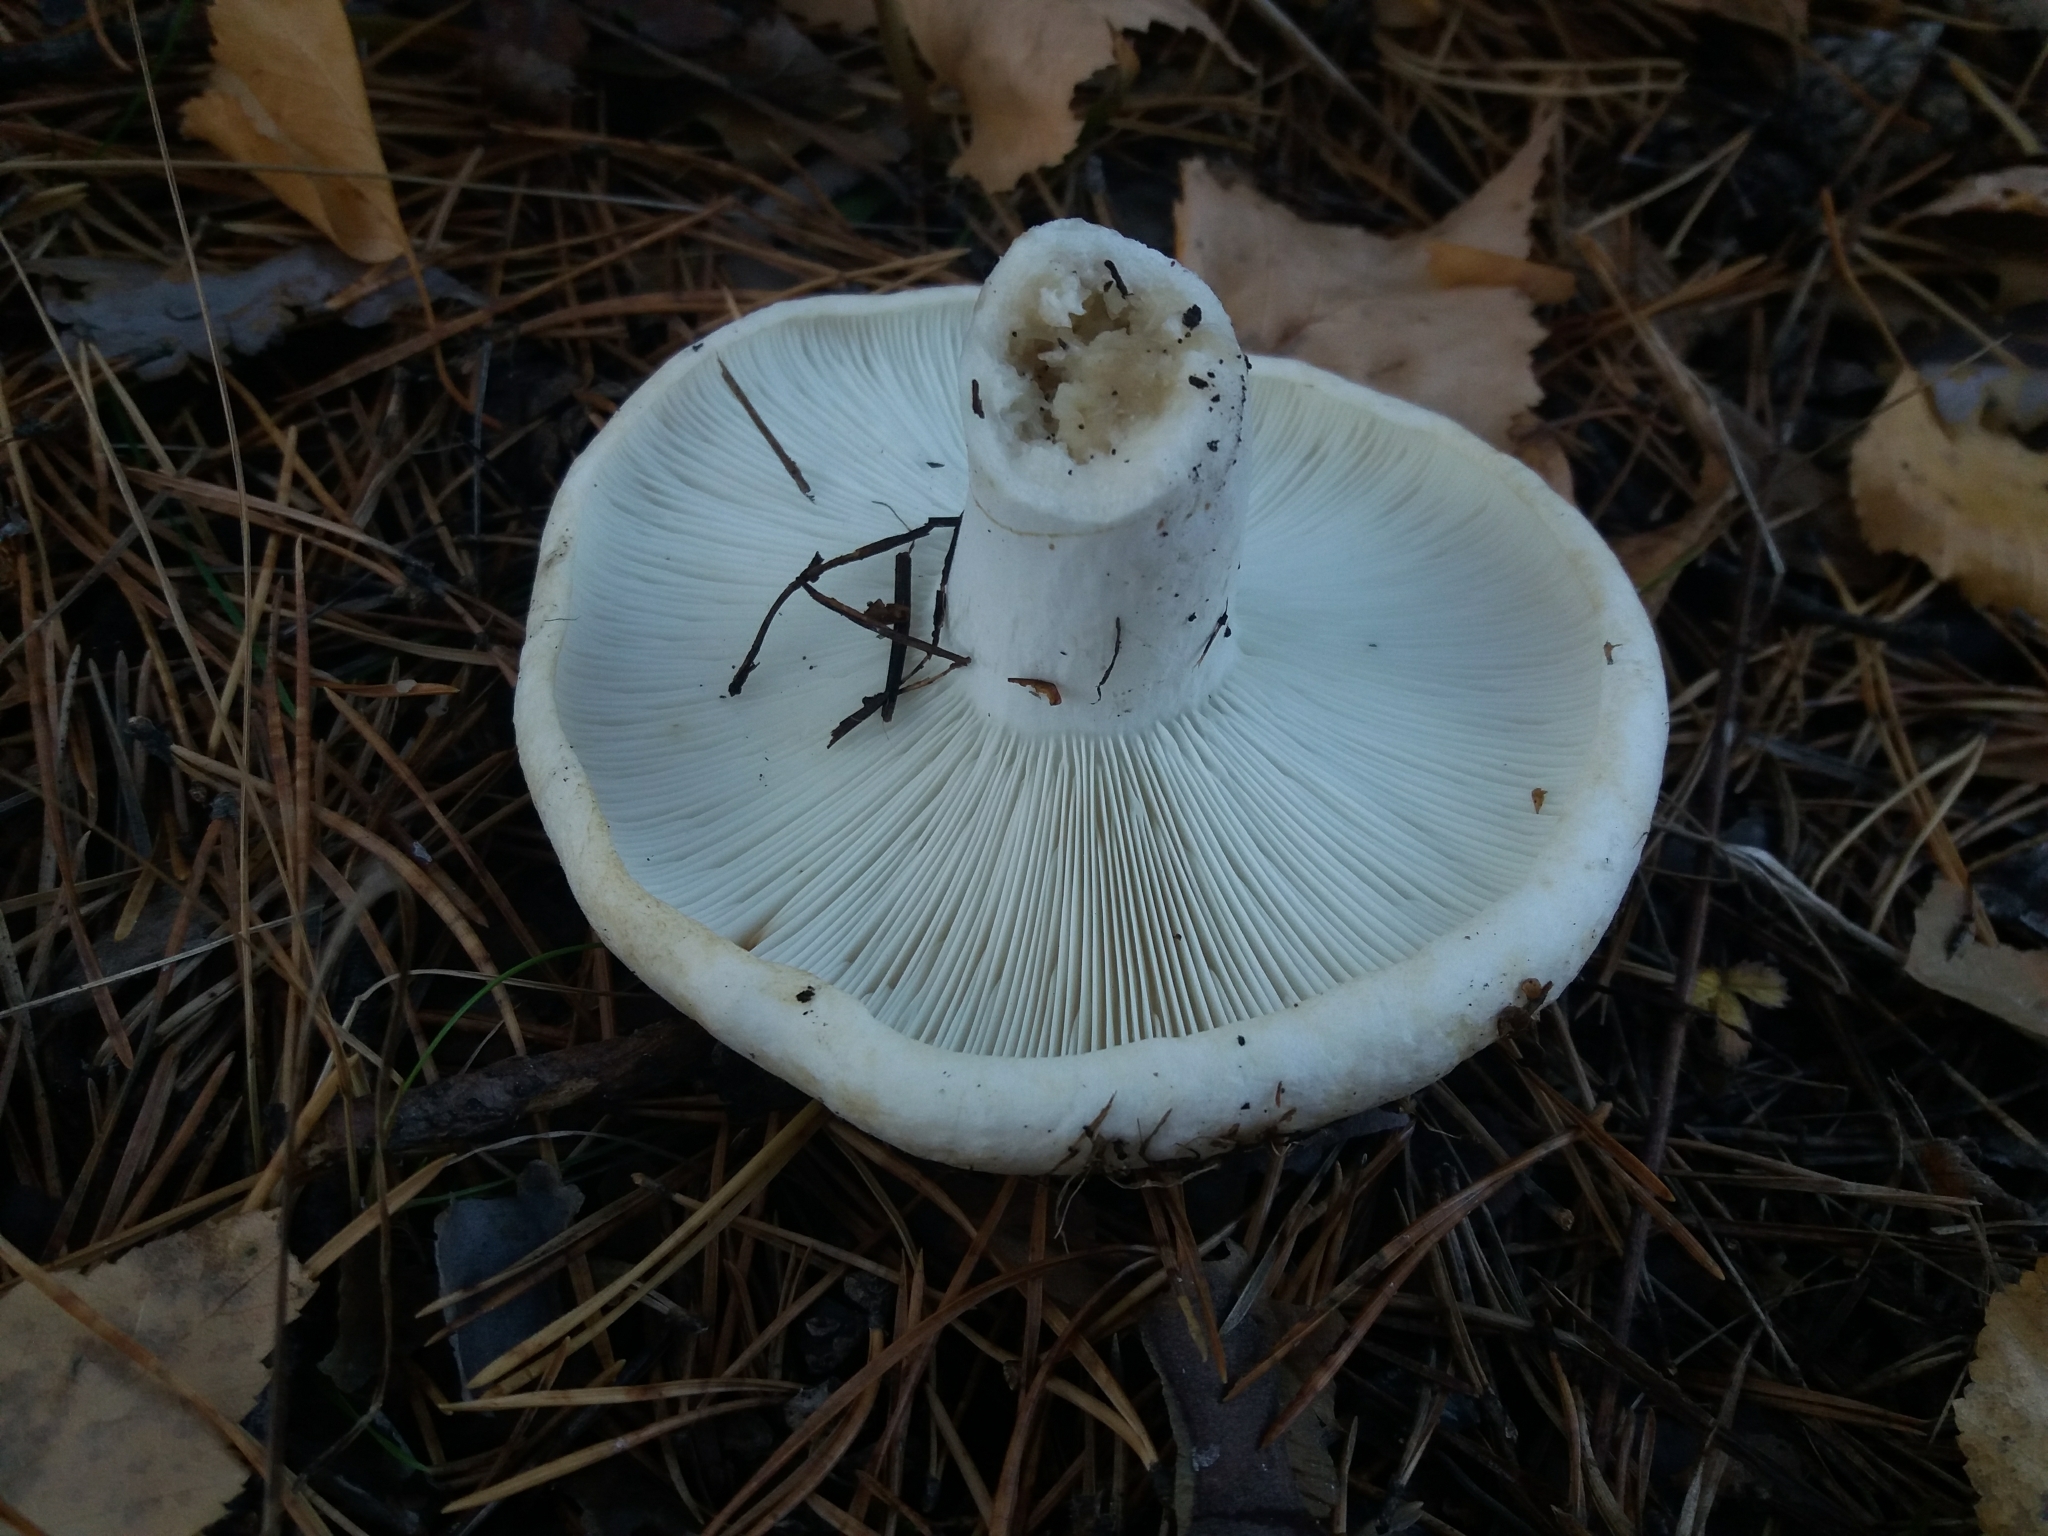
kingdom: Fungi
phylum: Basidiomycota
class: Agaricomycetes
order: Russulales
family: Russulaceae
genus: Russula
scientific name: Russula delica
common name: Milk white brittlegill
